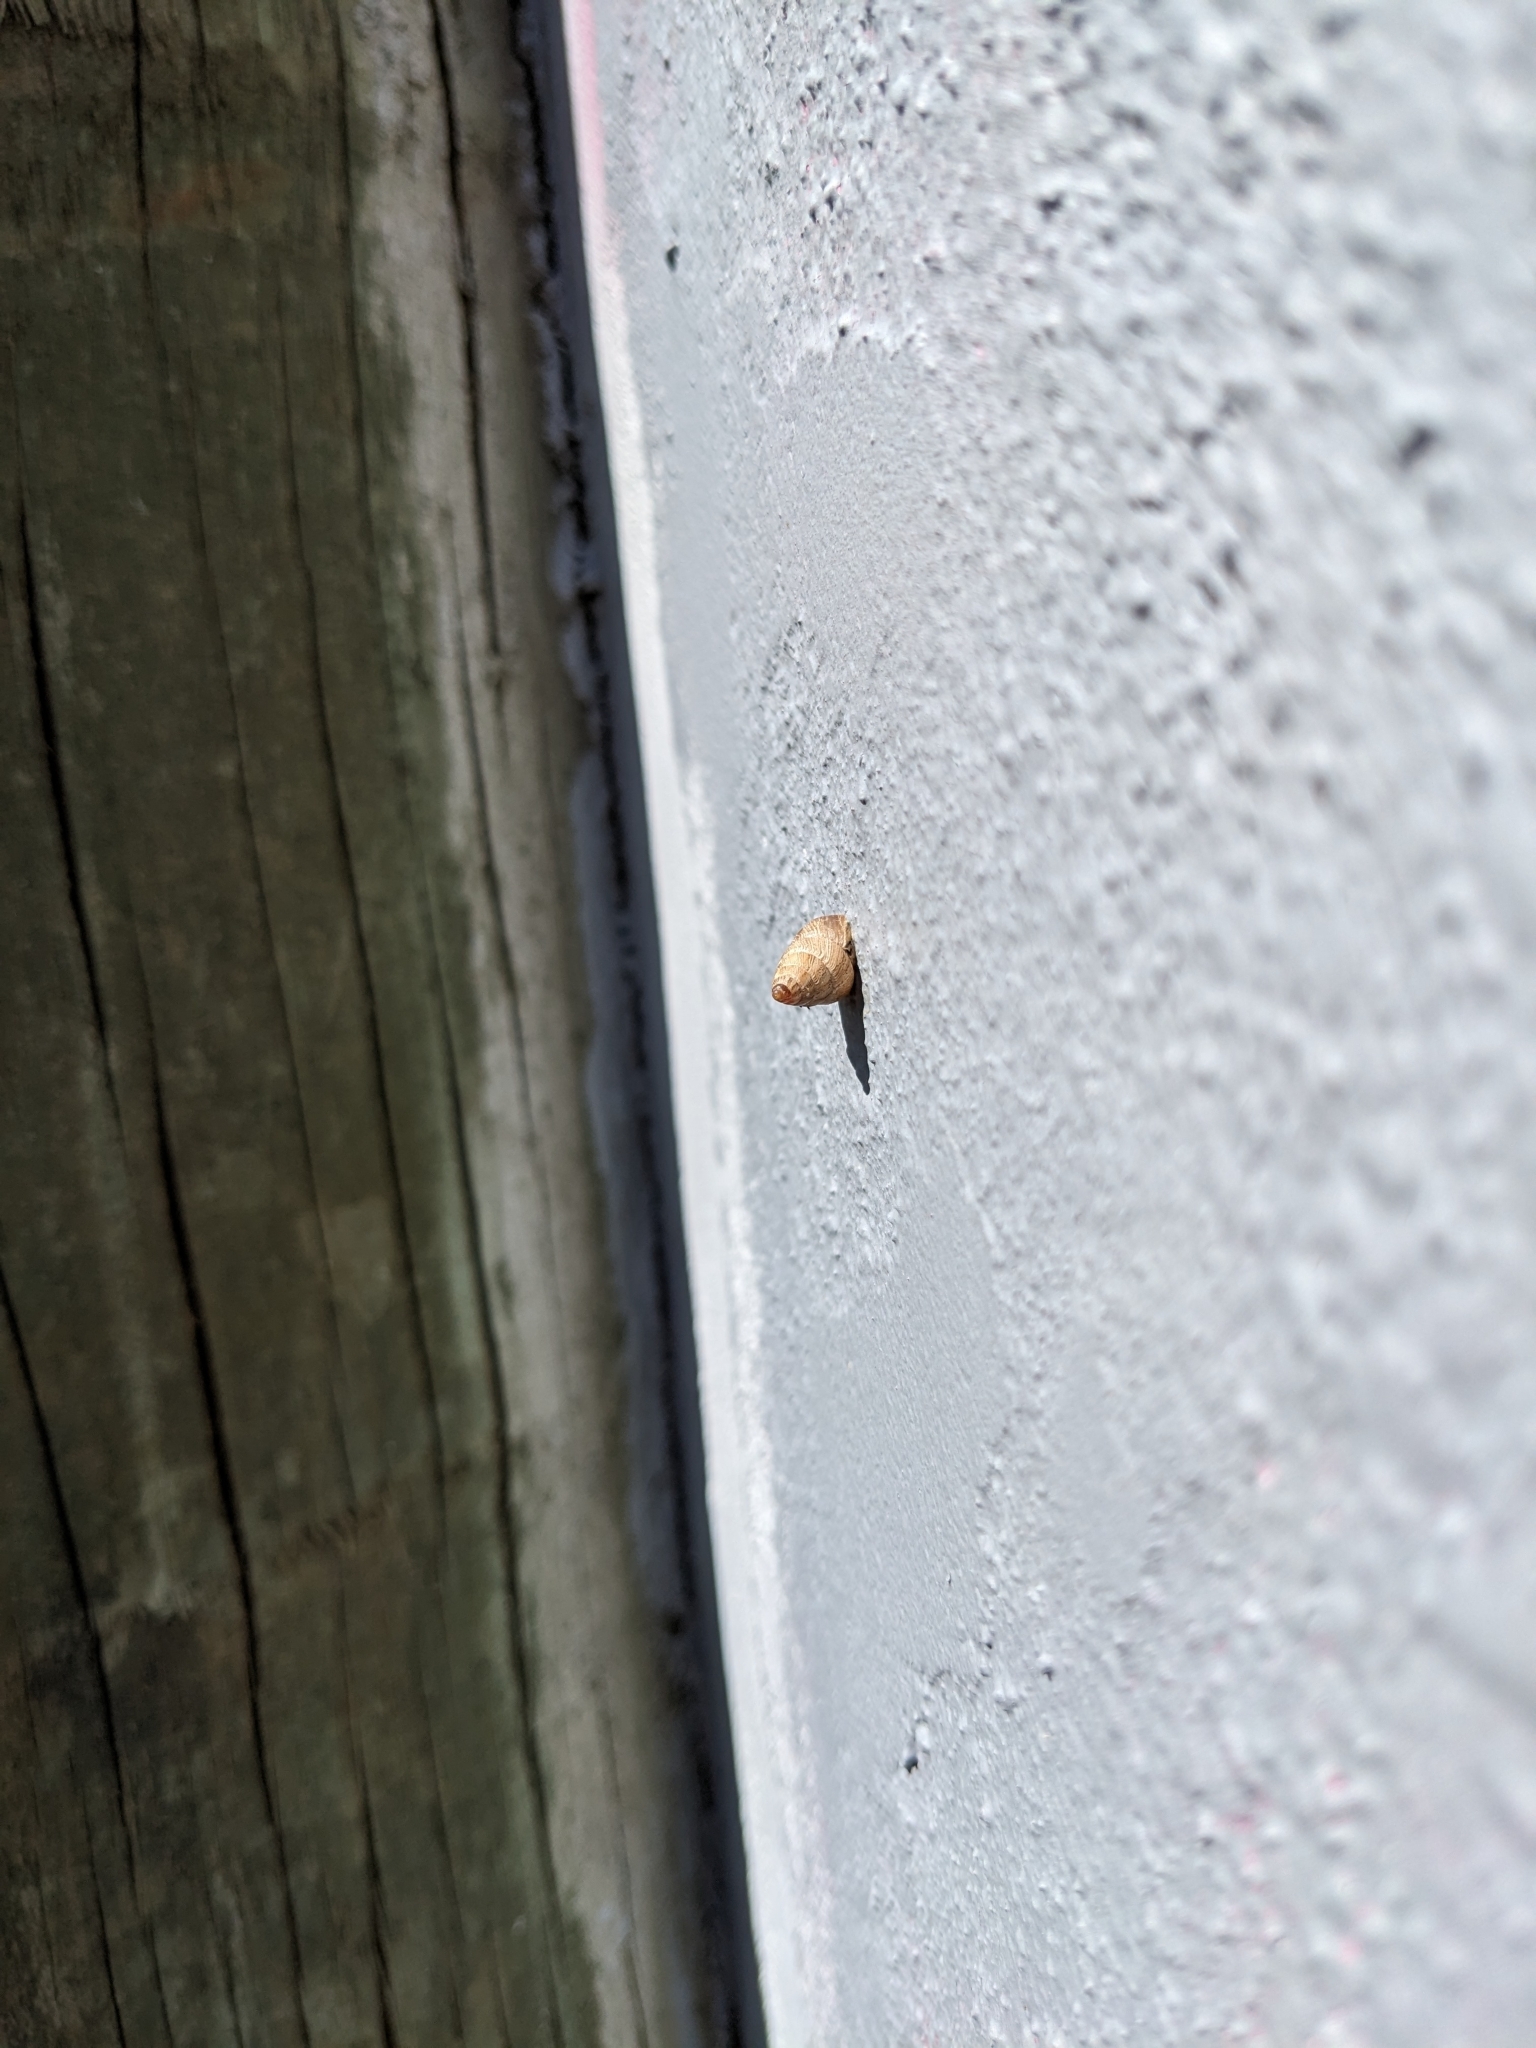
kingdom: Animalia
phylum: Mollusca
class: Gastropoda
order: Stylommatophora
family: Geomitridae
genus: Cochlicella
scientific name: Cochlicella barbara
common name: Potbellied helicellid
